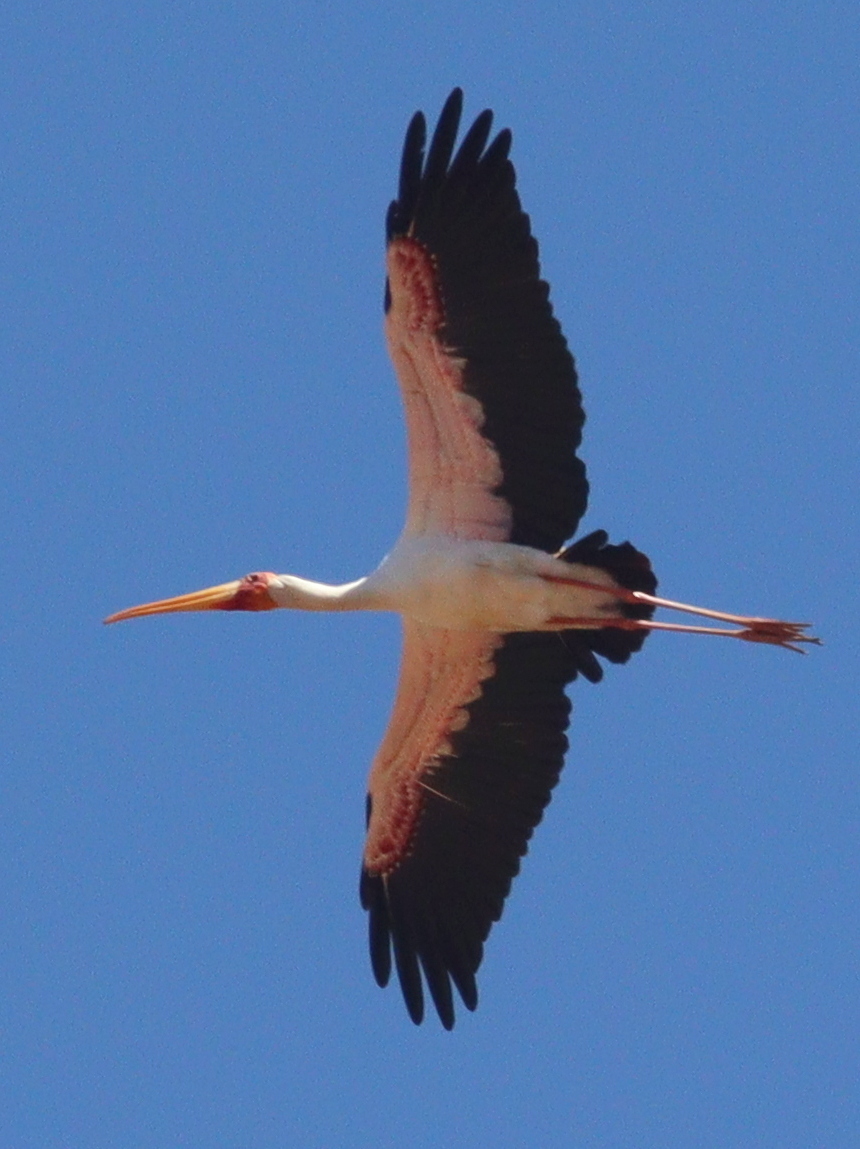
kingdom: Animalia
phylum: Chordata
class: Aves
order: Ciconiiformes
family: Ciconiidae
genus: Mycteria
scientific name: Mycteria ibis
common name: Yellow-billed stork
